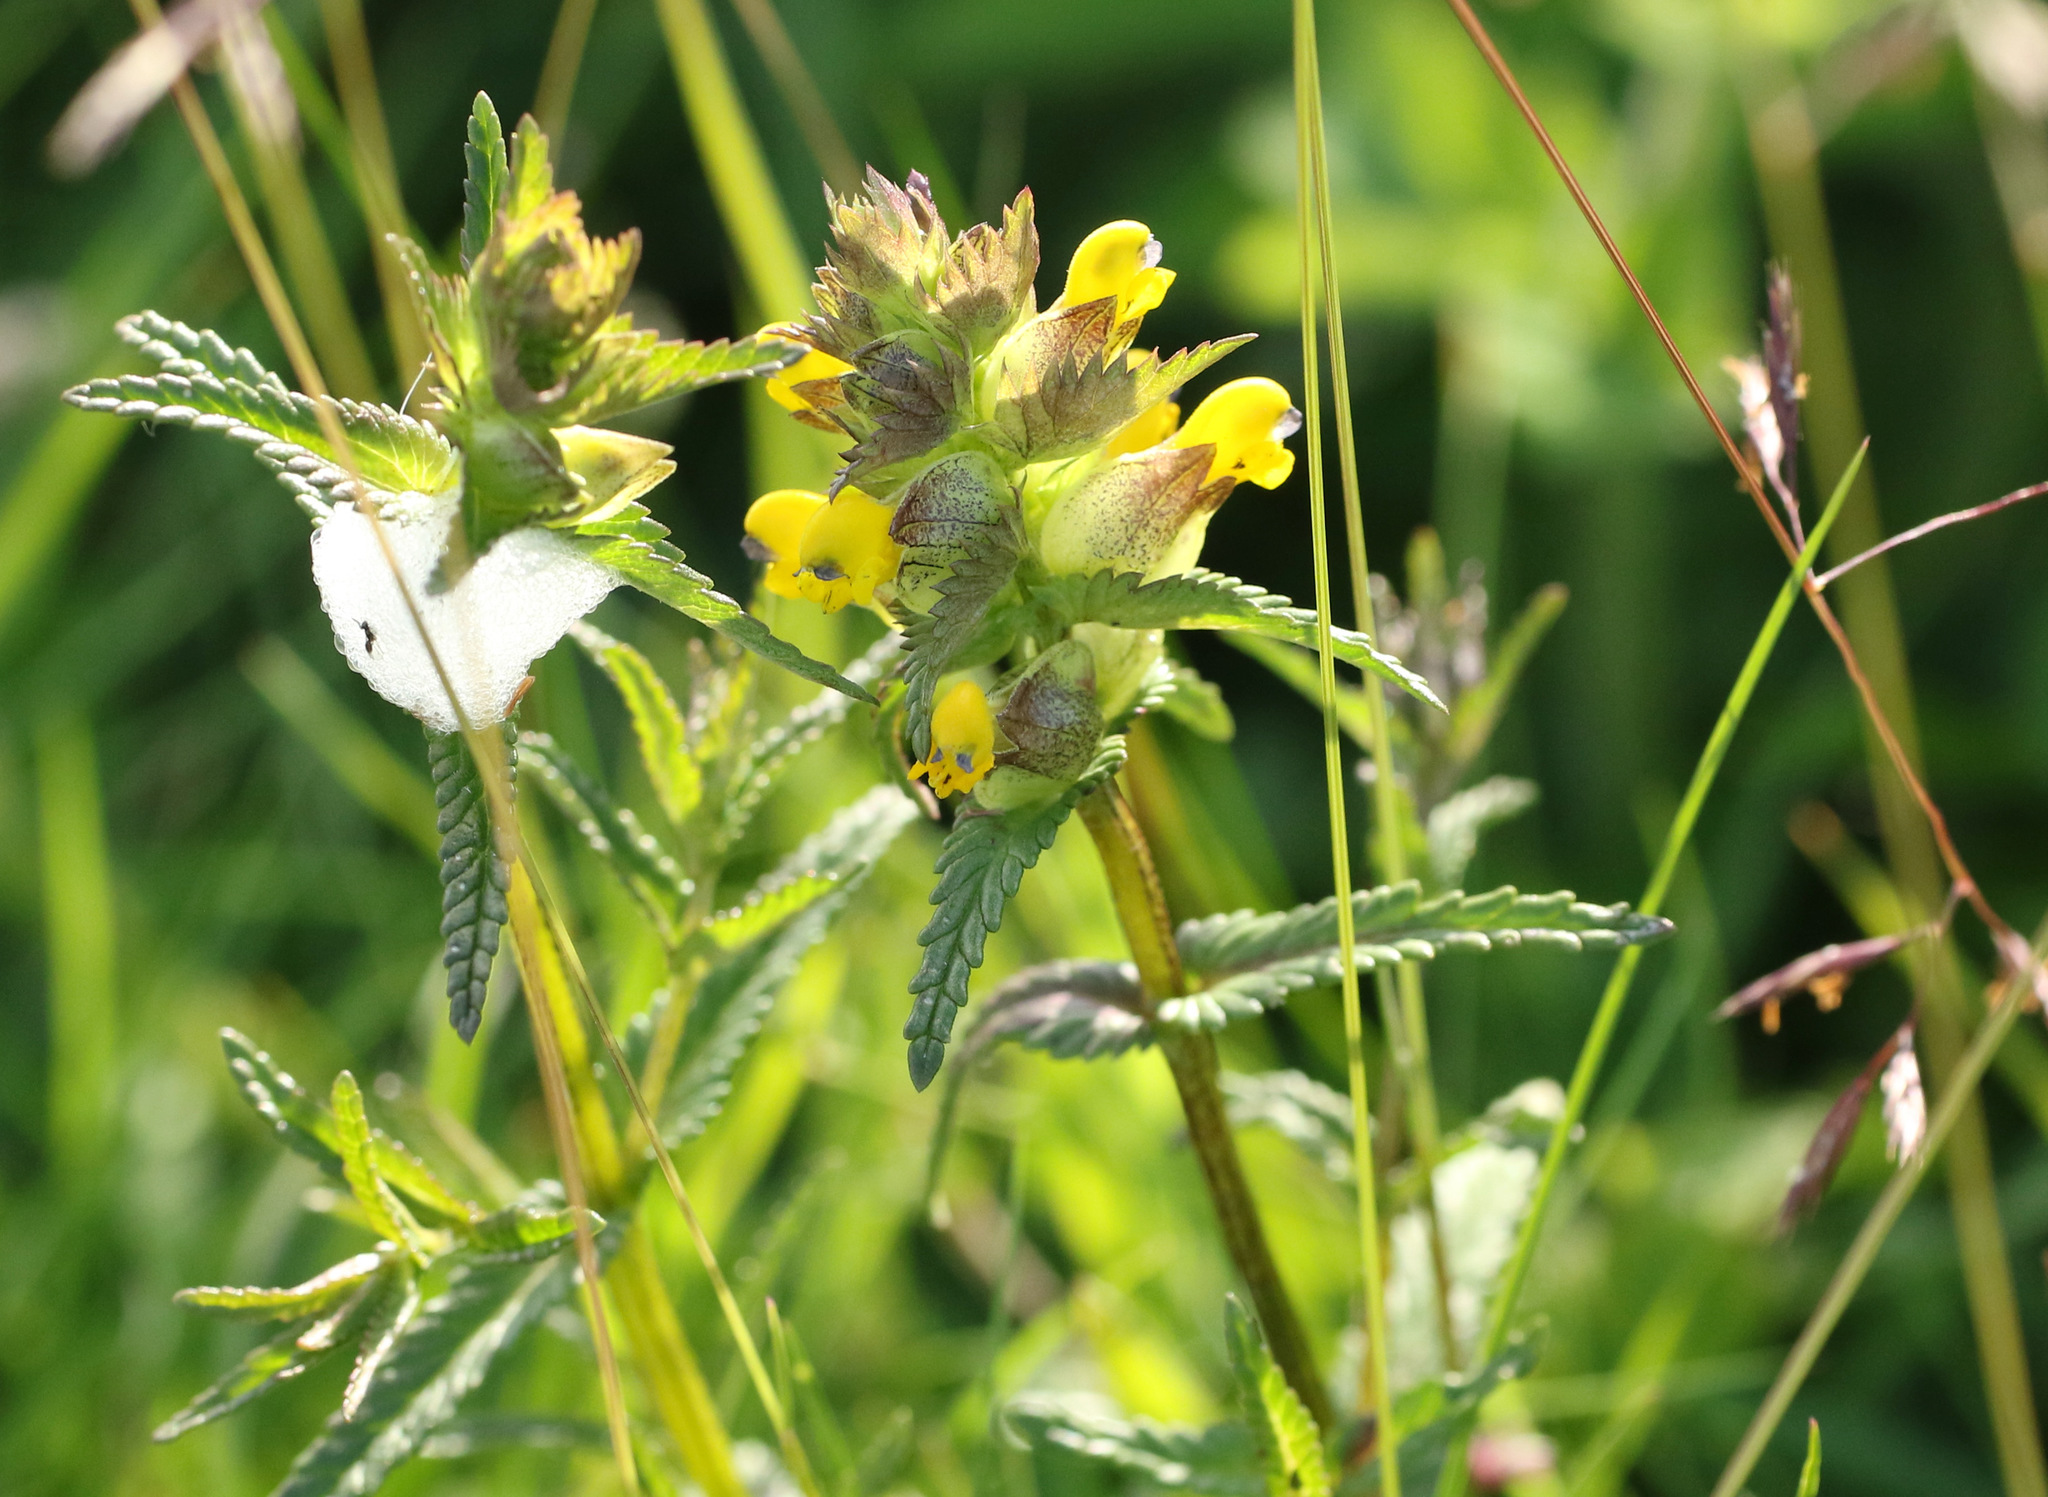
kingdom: Plantae
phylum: Tracheophyta
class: Magnoliopsida
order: Lamiales
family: Orobanchaceae
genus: Rhinanthus
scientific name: Rhinanthus minor
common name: Yellow-rattle
